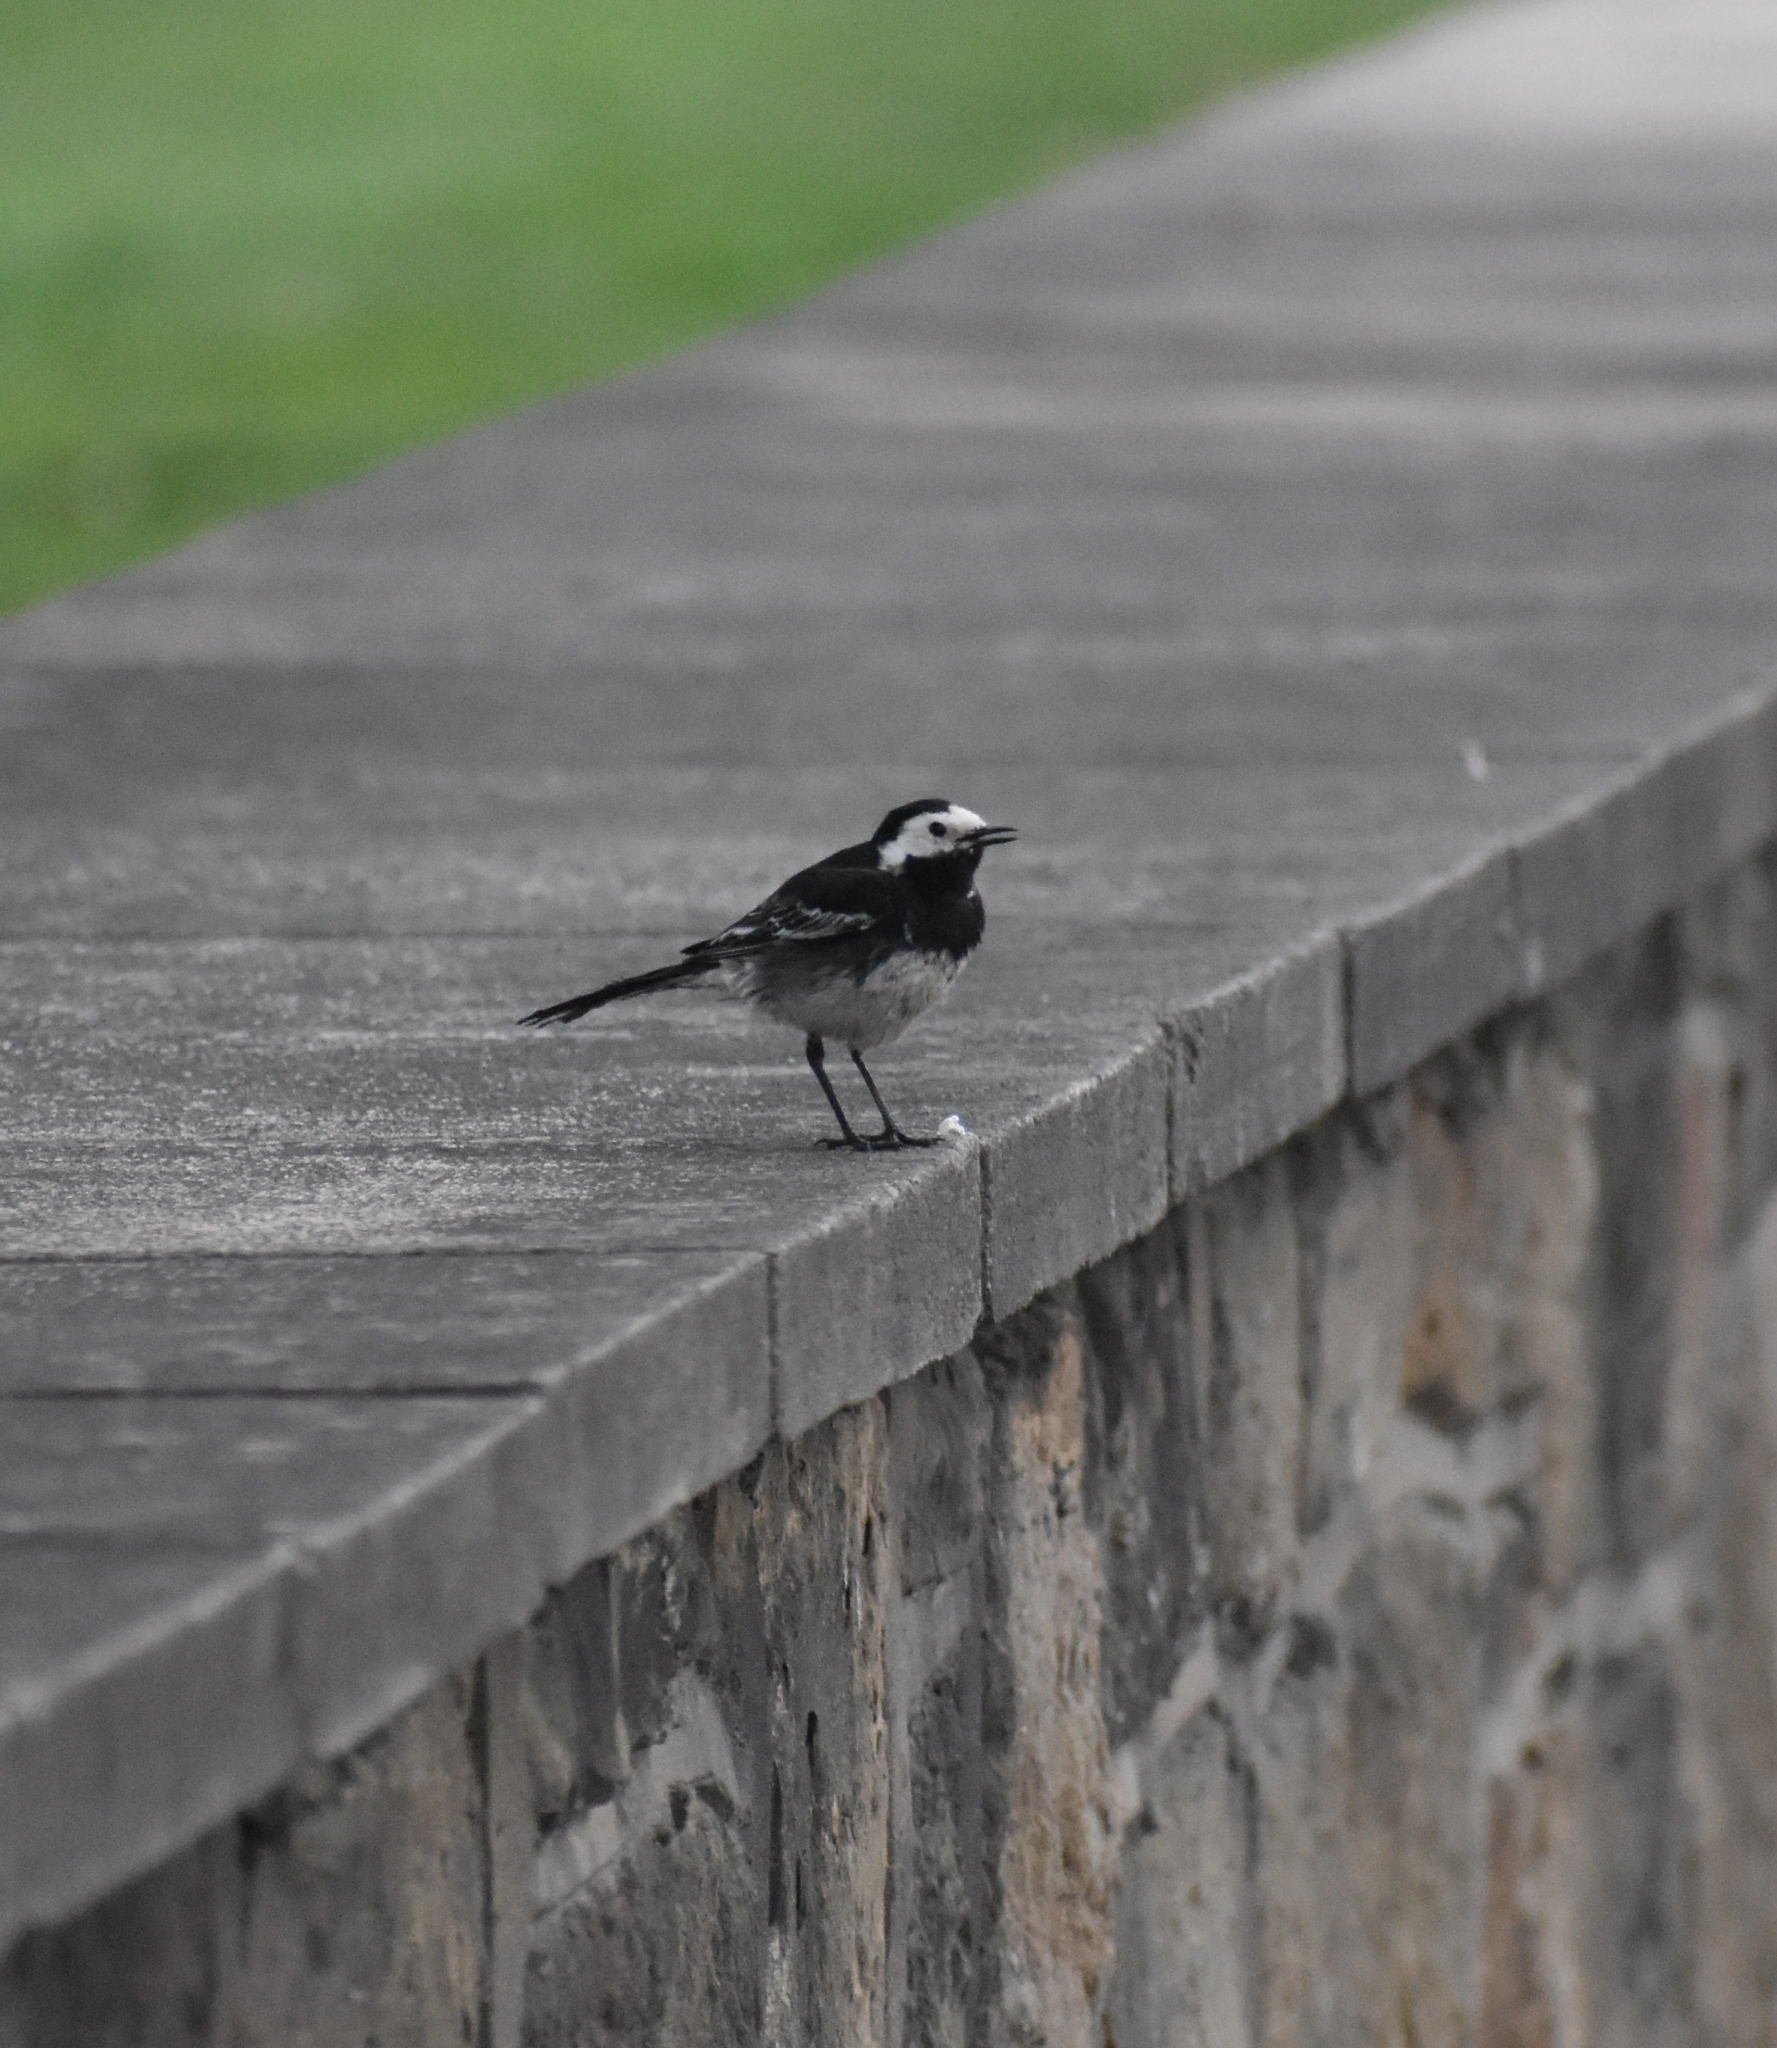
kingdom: Animalia
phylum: Chordata
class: Aves
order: Passeriformes
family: Motacillidae
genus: Motacilla
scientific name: Motacilla alba
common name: White wagtail
